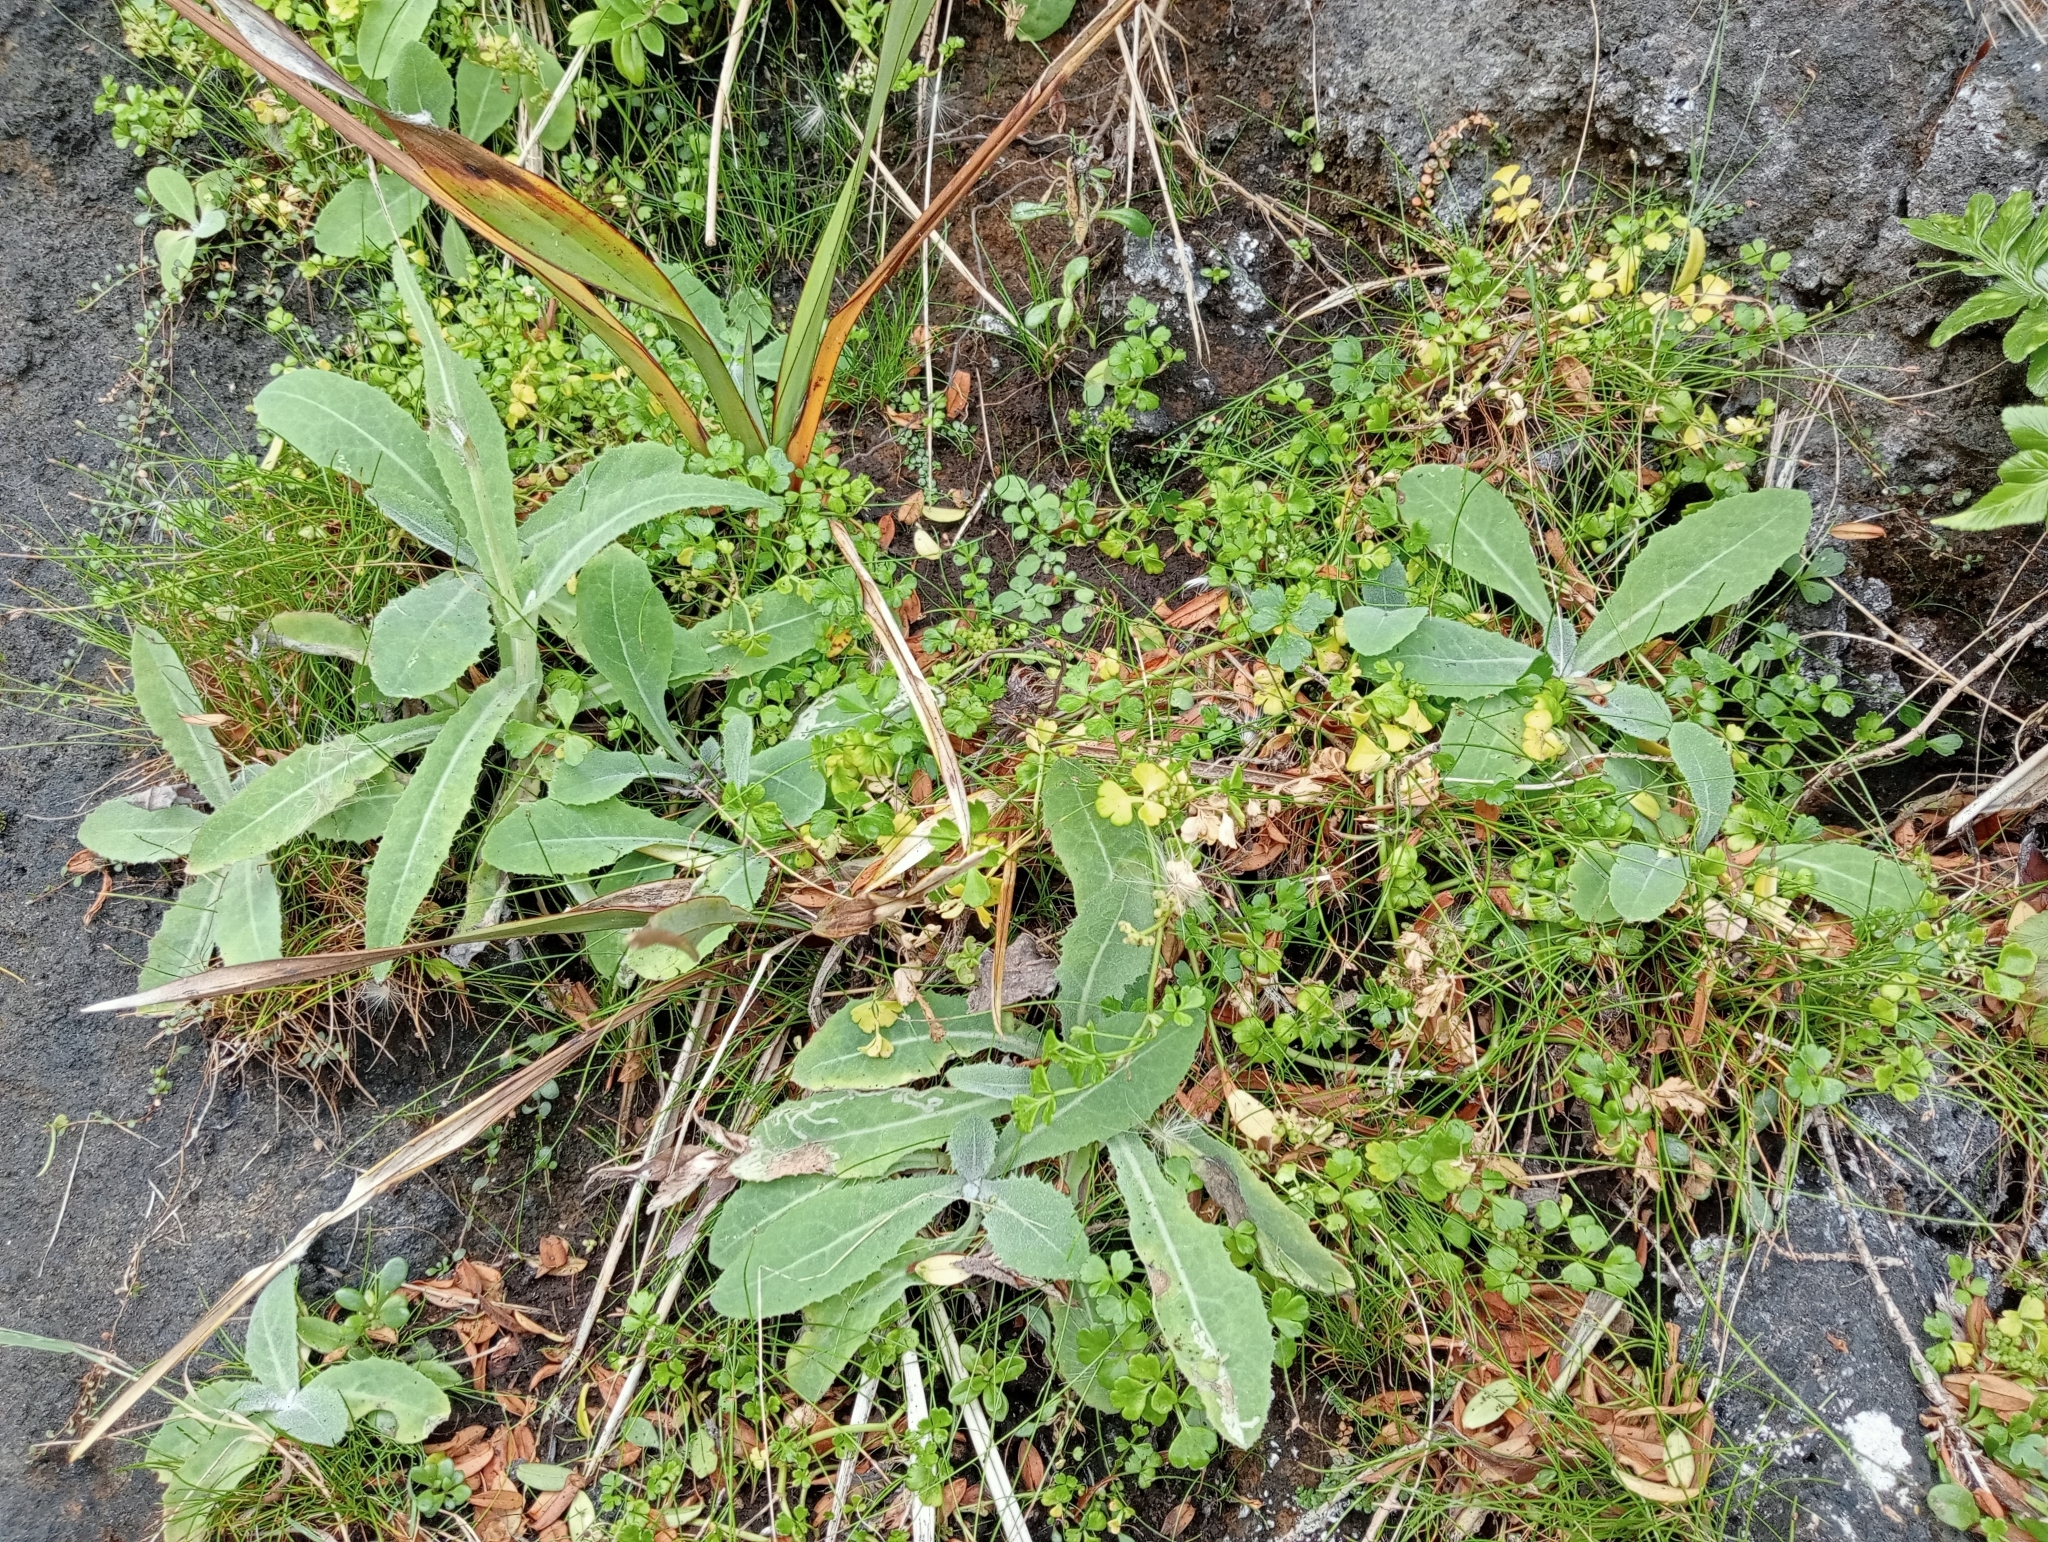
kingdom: Plantae
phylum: Tracheophyta
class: Magnoliopsida
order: Asterales
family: Asteraceae
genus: Sonchus
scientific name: Sonchus kirkii
